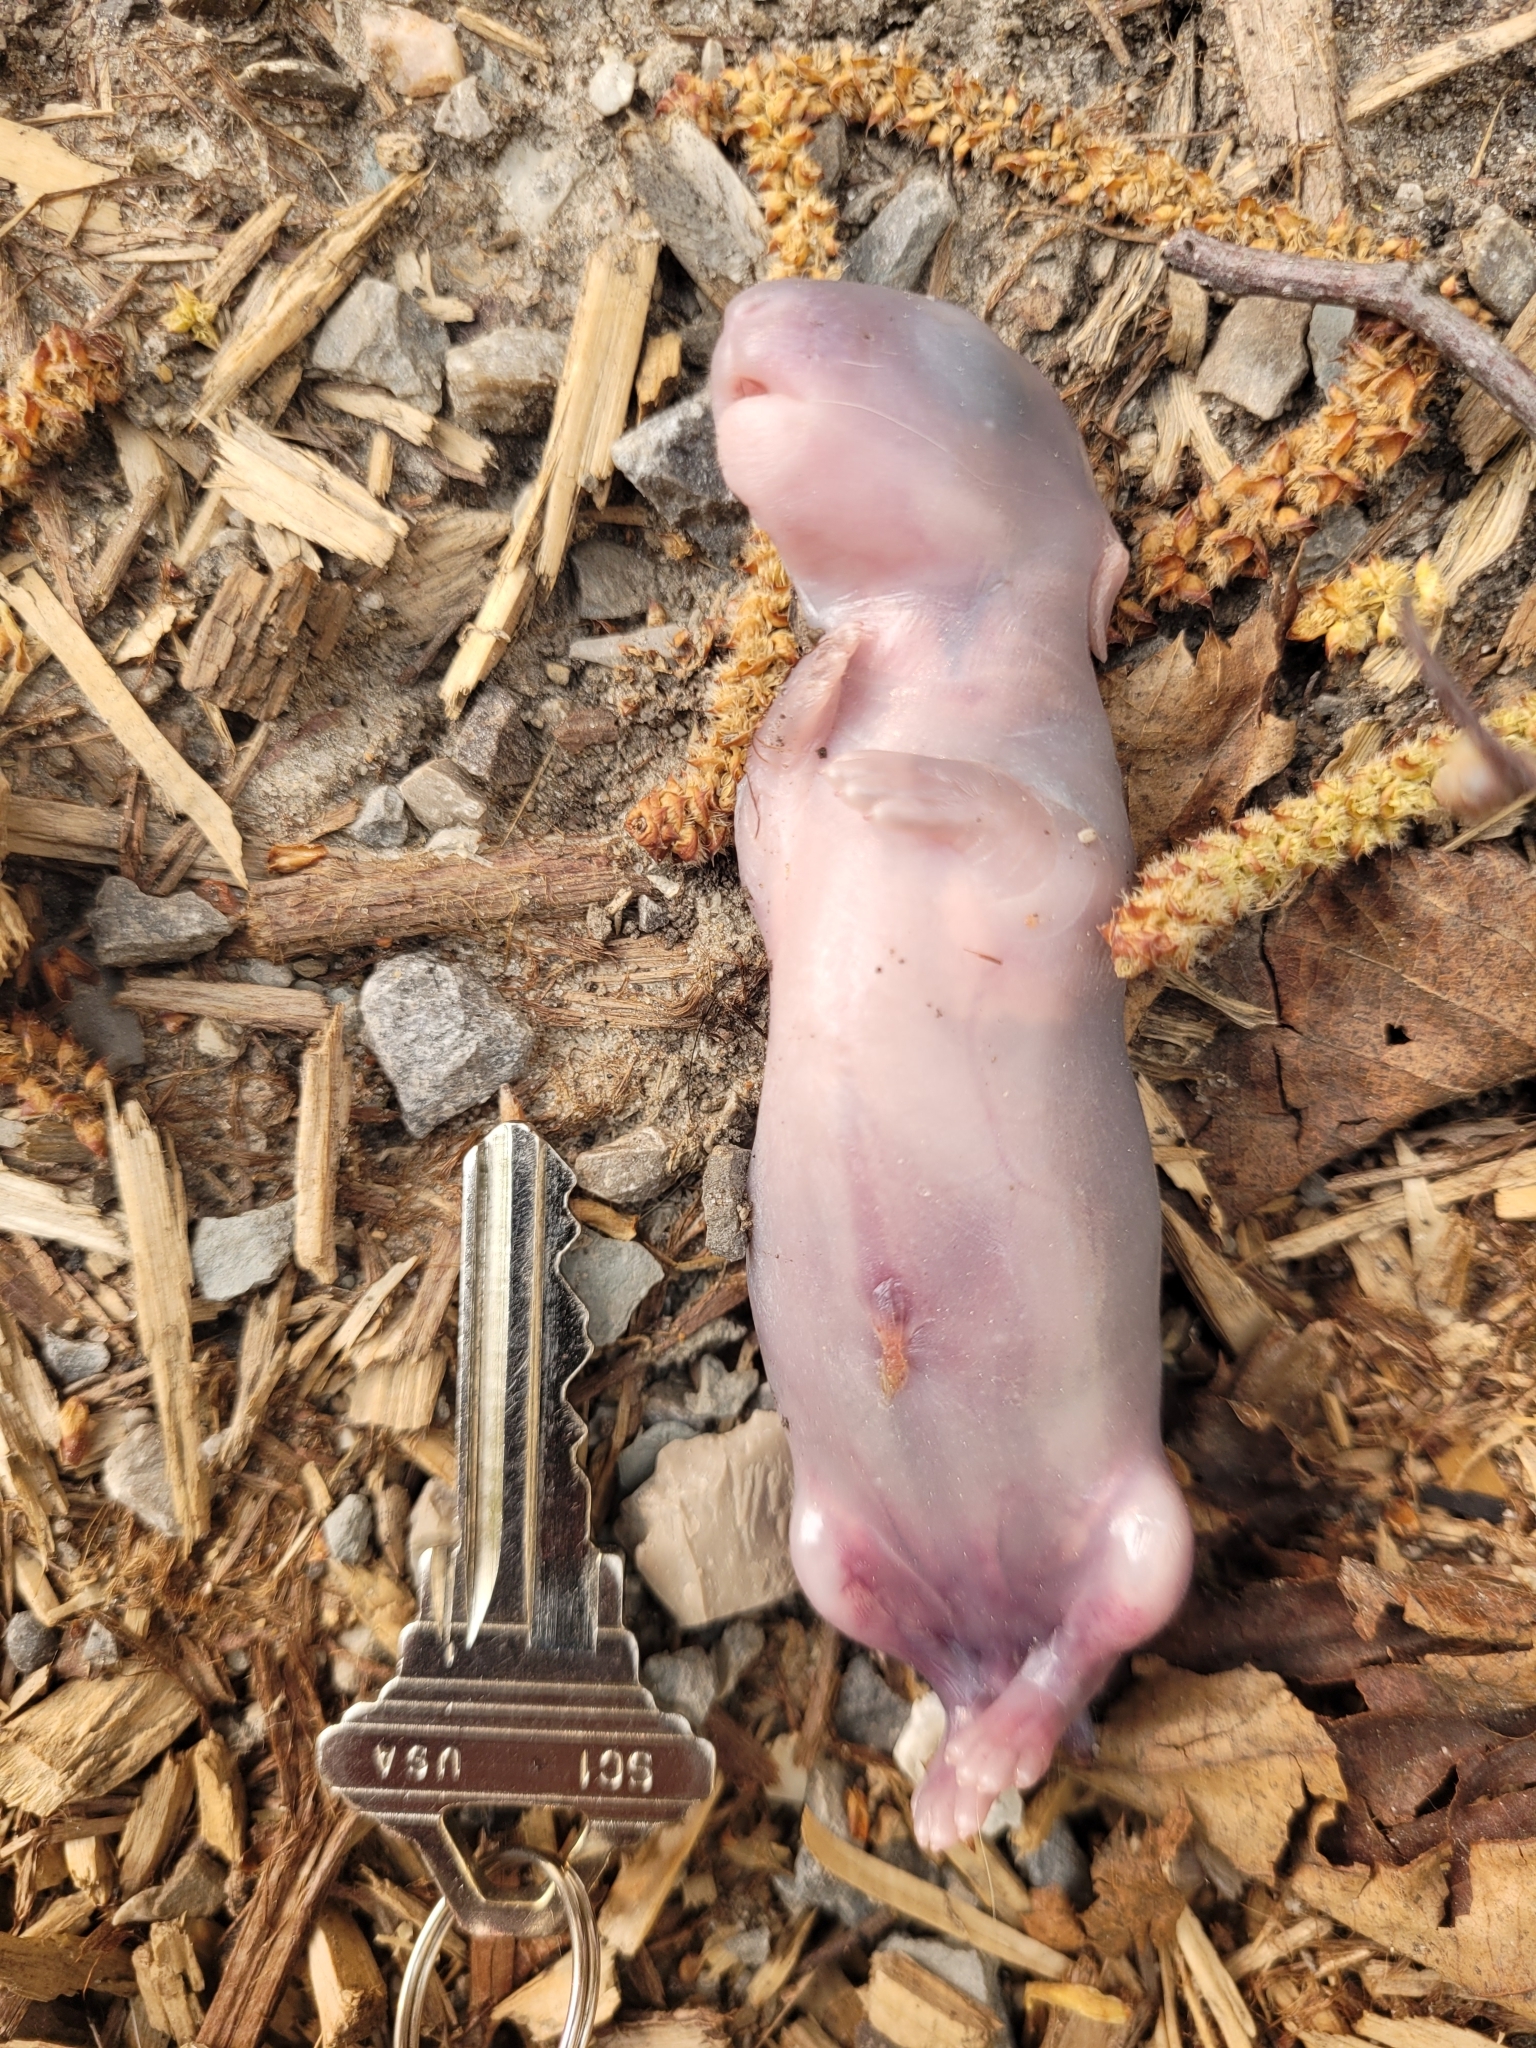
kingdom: Animalia
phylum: Chordata
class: Mammalia
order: Lagomorpha
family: Leporidae
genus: Sylvilagus
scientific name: Sylvilagus floridanus
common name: Eastern cottontail
